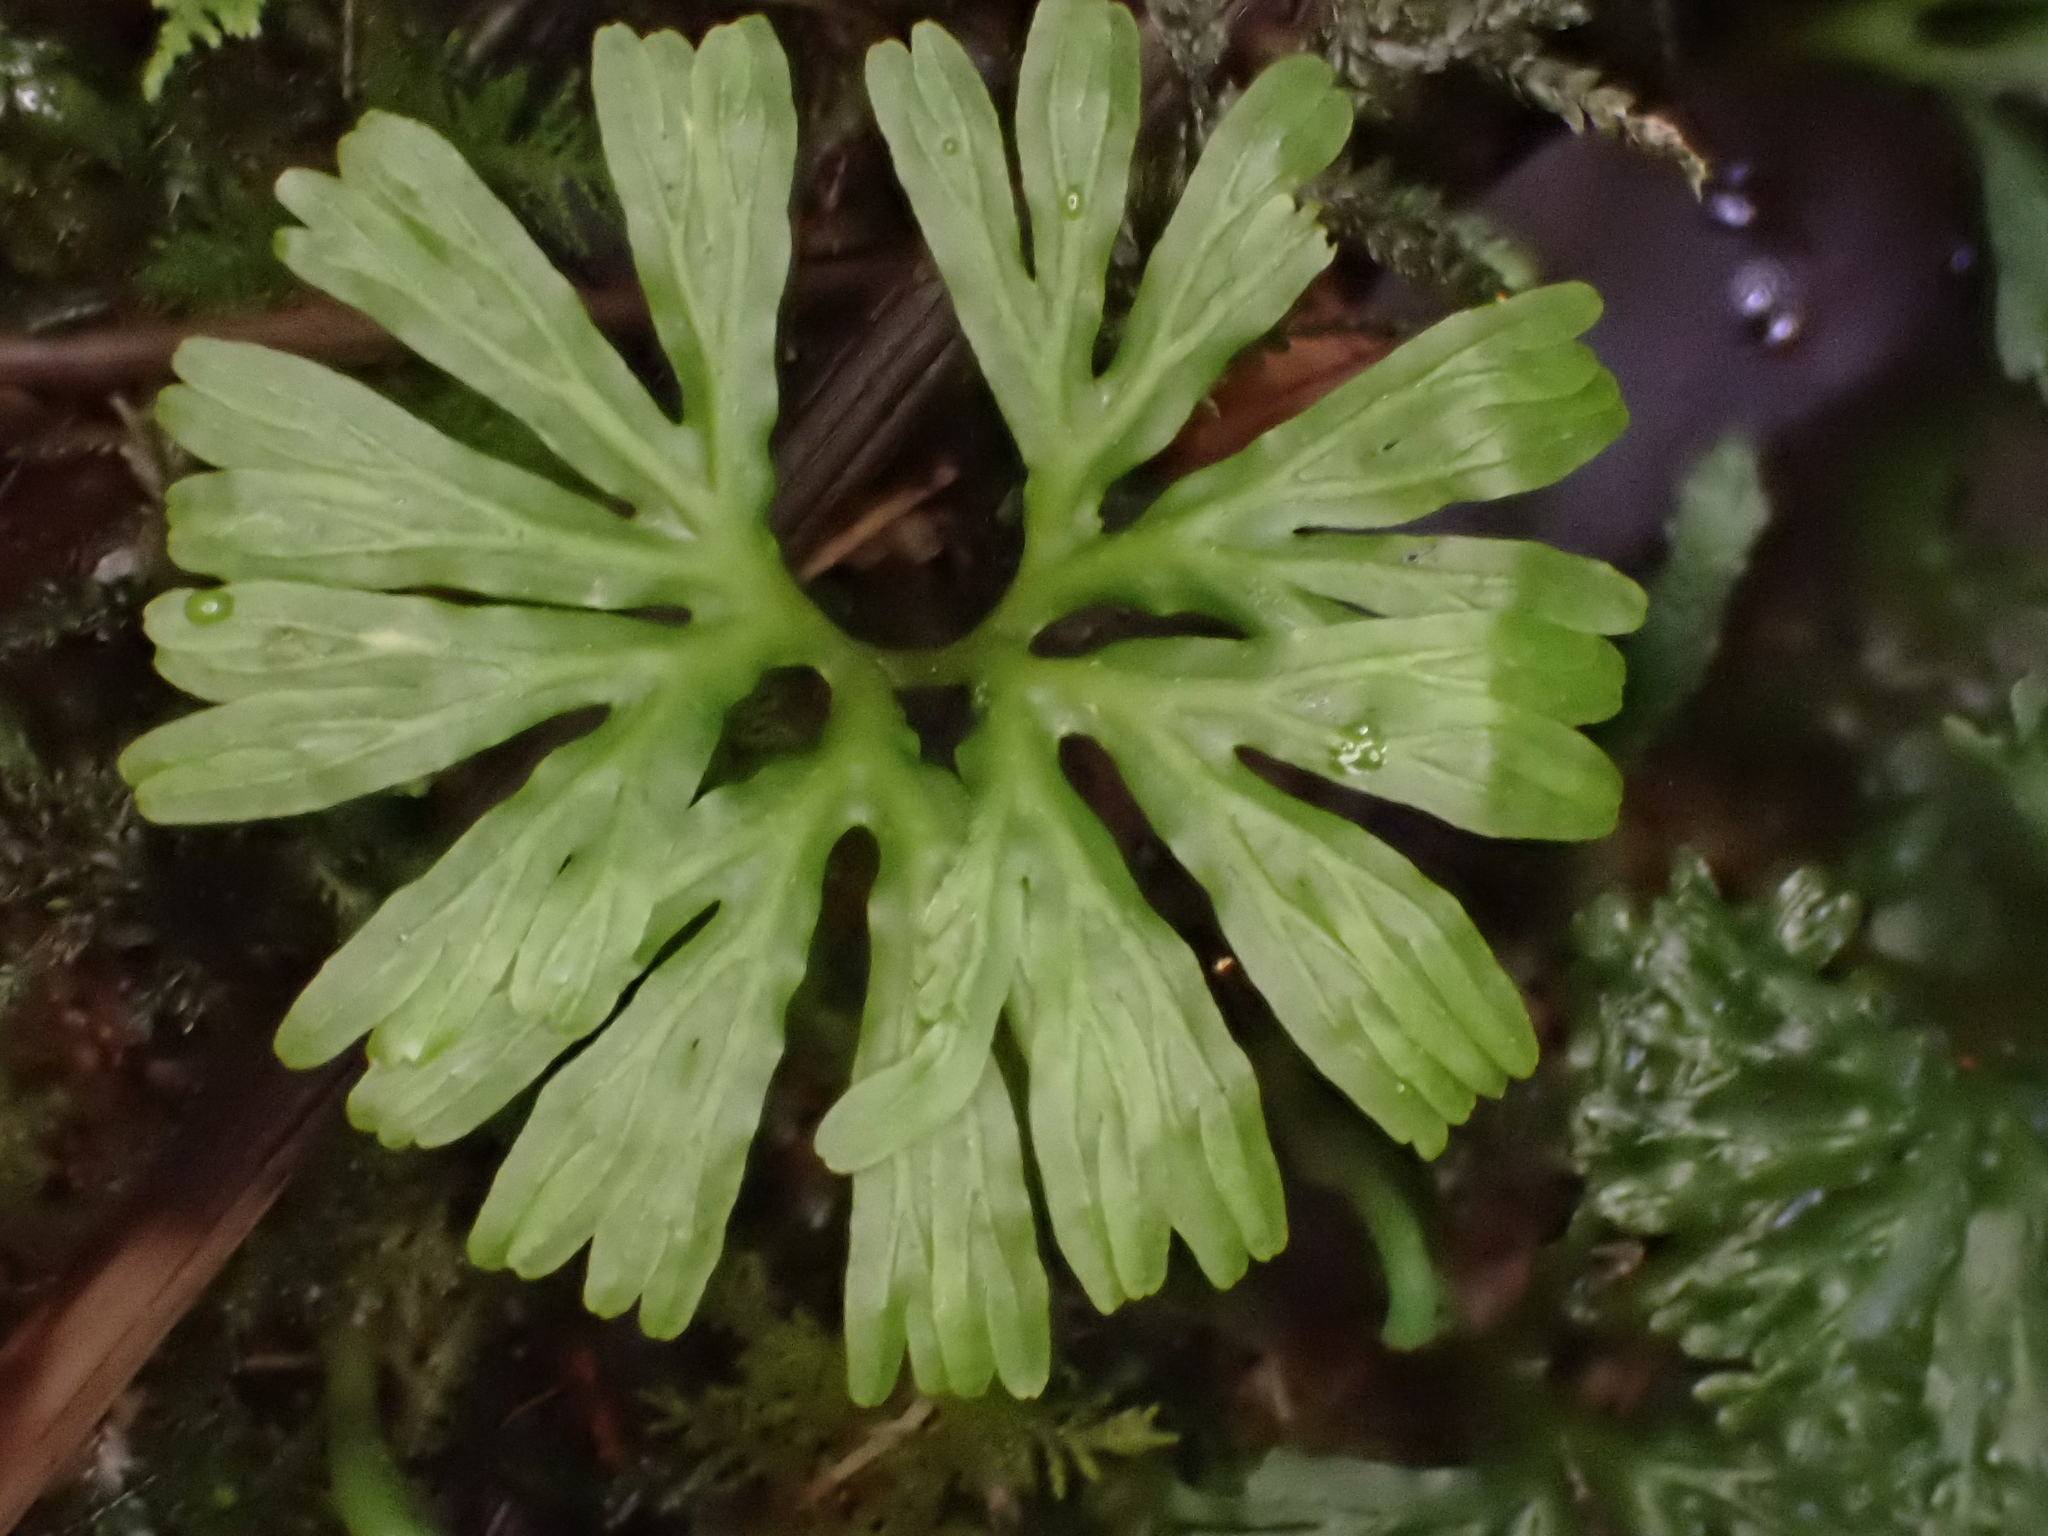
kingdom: Plantae
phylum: Marchantiophyta
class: Jungermanniopsida
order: Pallaviciniales
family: Hymenophytaceae
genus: Hymenophyton
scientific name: Hymenophyton flabellatum
